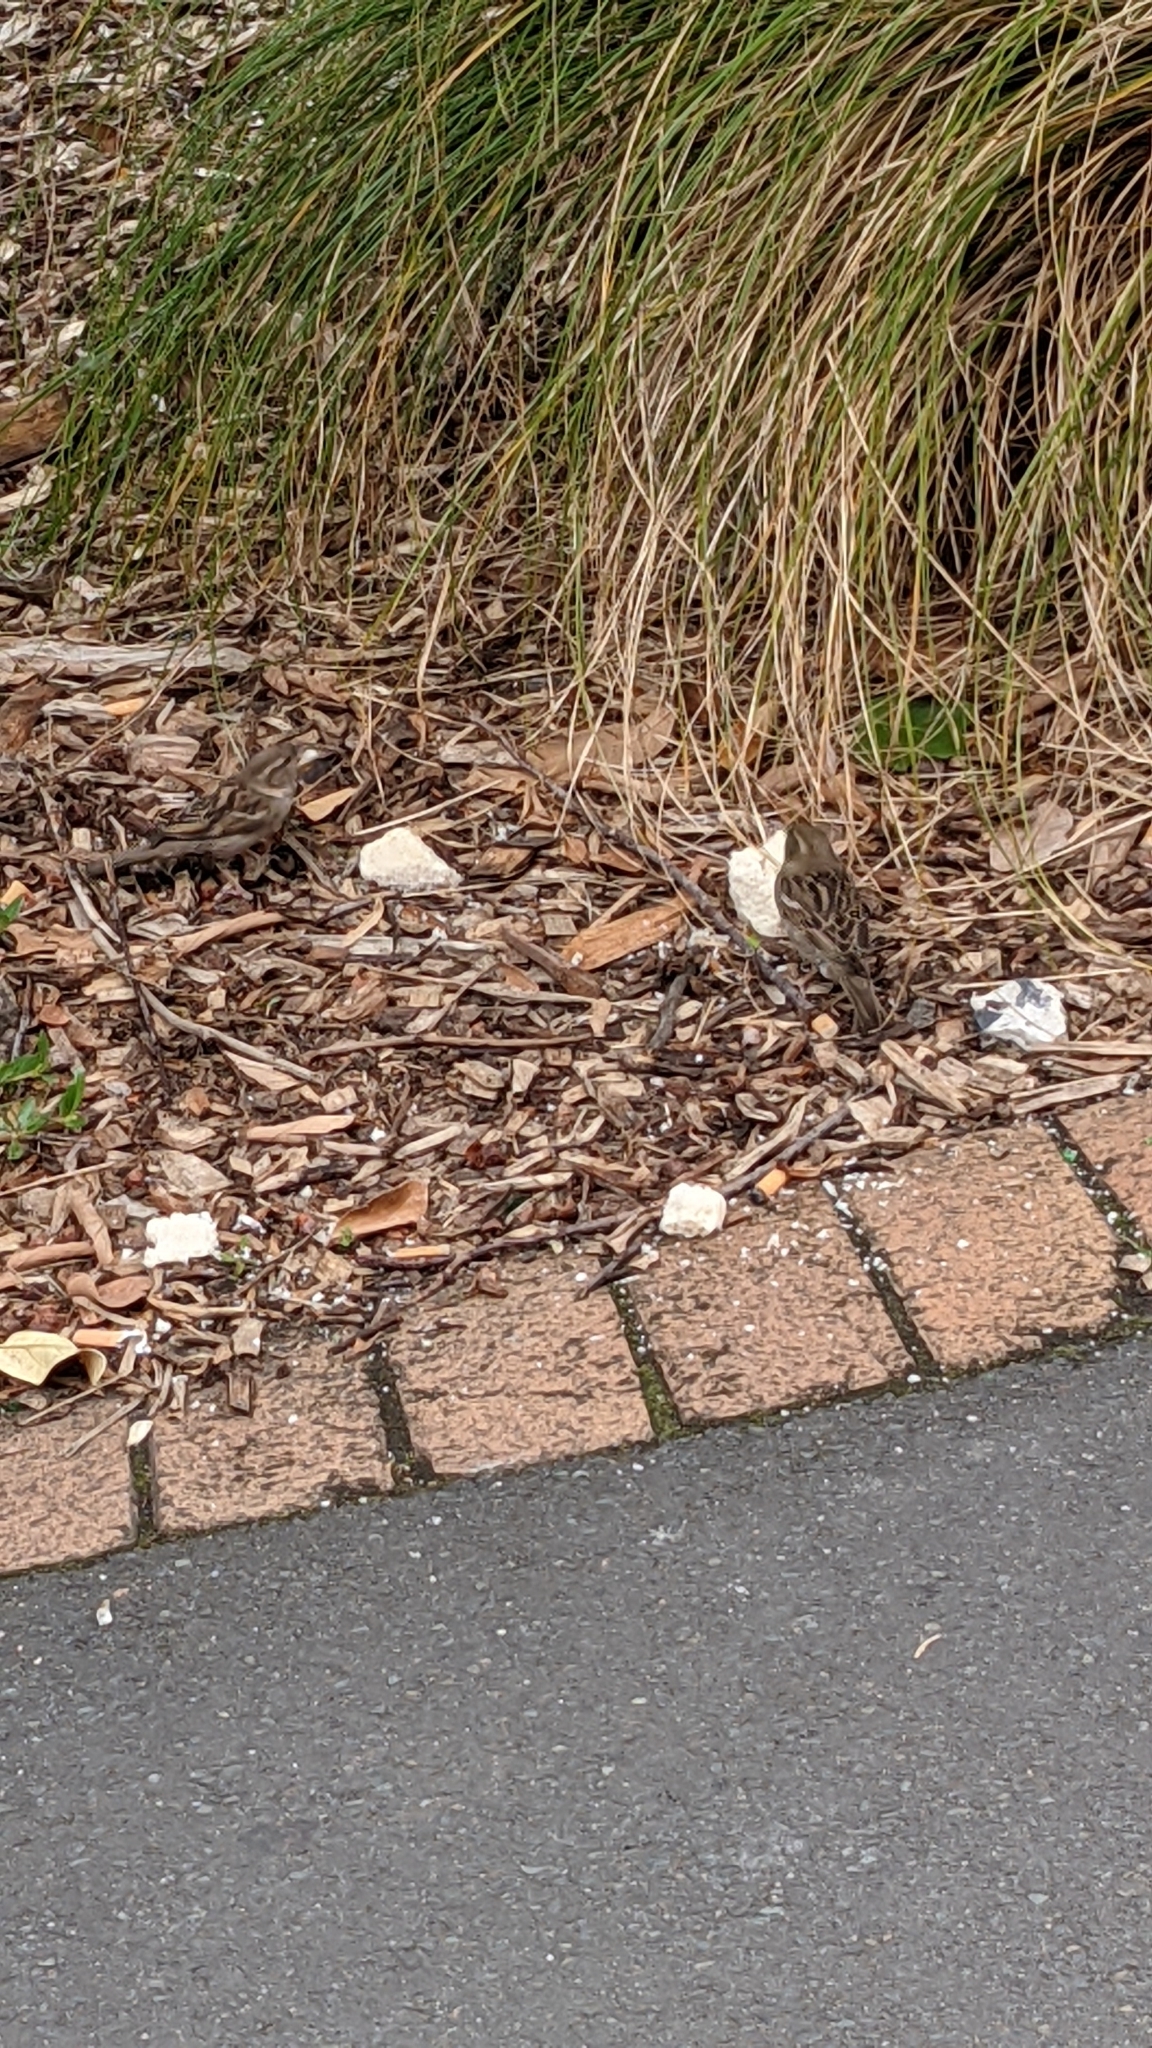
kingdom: Animalia
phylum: Chordata
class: Aves
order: Passeriformes
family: Passeridae
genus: Passer
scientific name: Passer domesticus
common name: House sparrow
